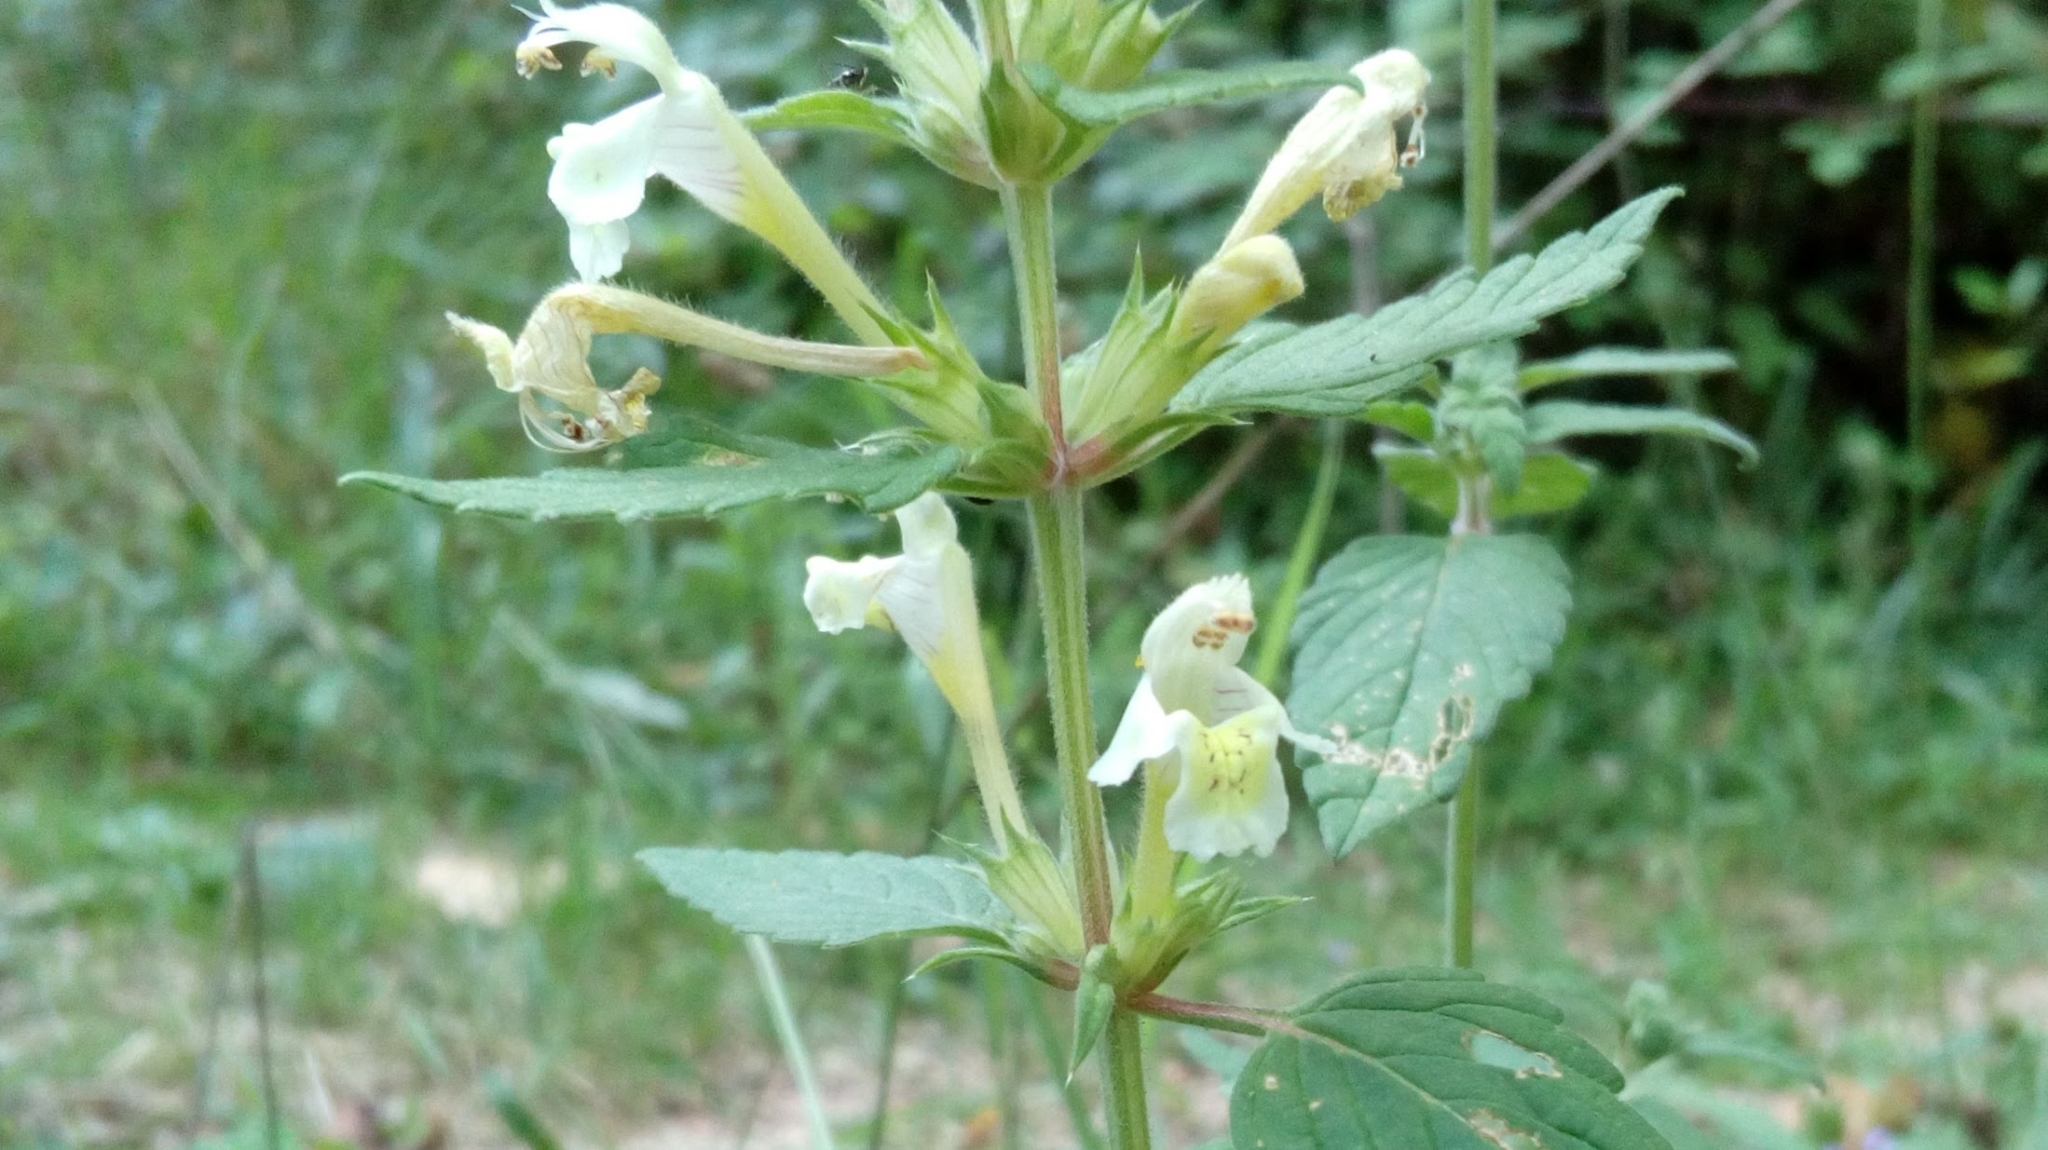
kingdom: Plantae
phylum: Tracheophyta
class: Magnoliopsida
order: Lamiales
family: Lamiaceae
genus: Galeopsis
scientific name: Galeopsis segetum
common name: Downy hemp-nettle
